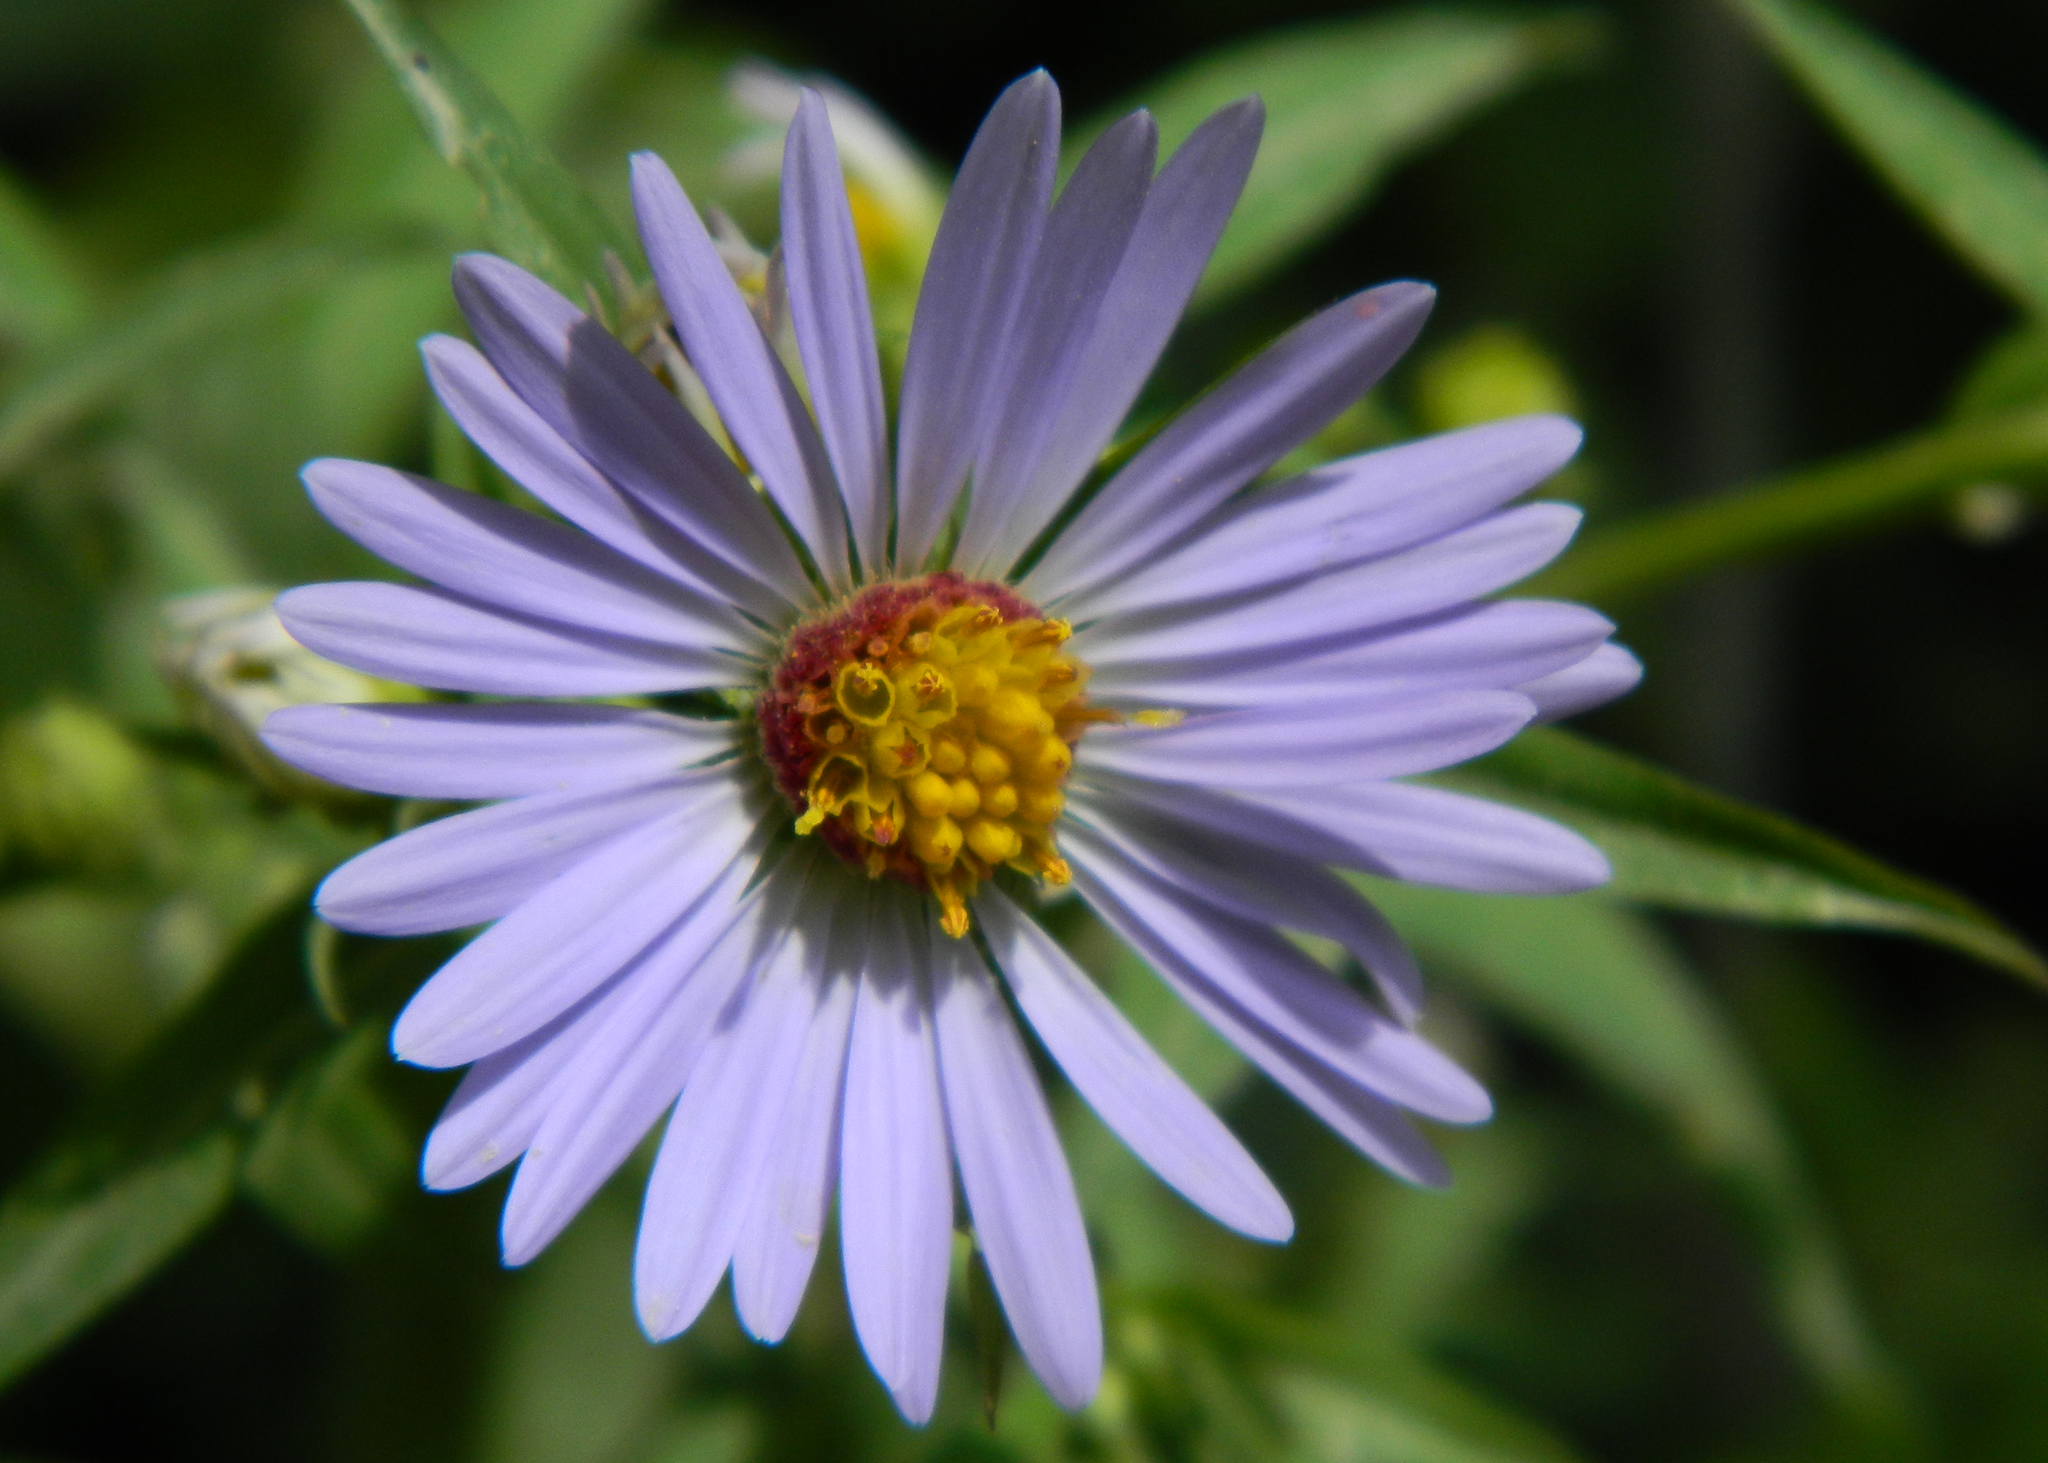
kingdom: Plantae
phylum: Tracheophyta
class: Magnoliopsida
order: Asterales
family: Asteraceae
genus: Symphyotrichum
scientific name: Symphyotrichum novi-belgii
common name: Michaelmas daisy
